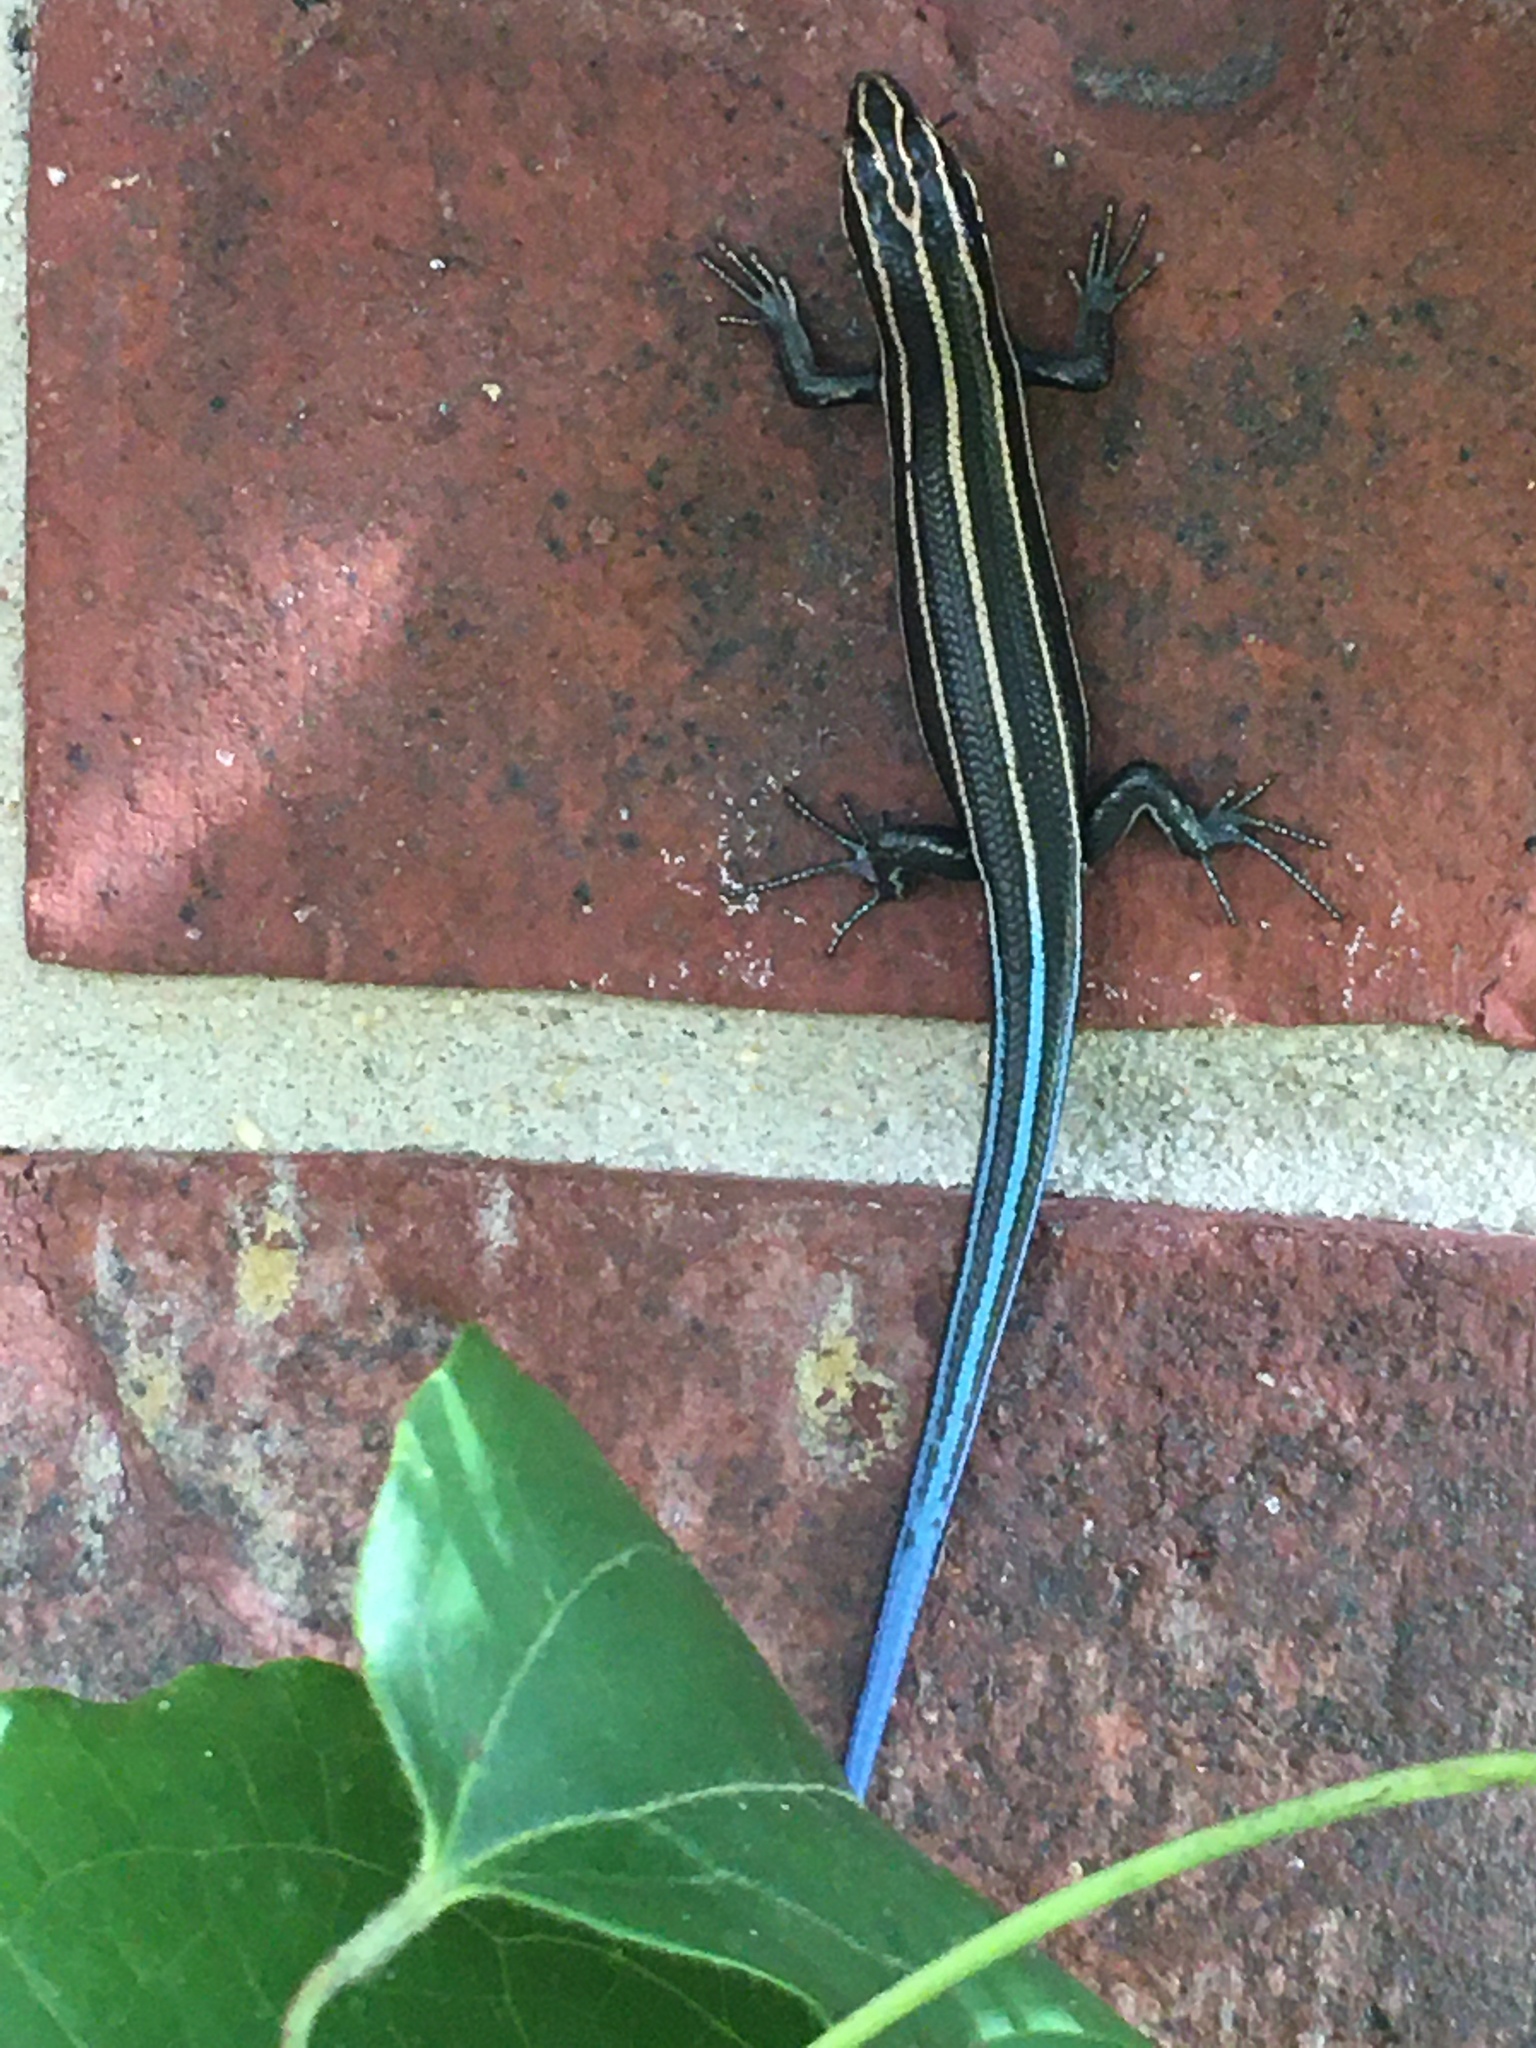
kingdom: Animalia
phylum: Chordata
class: Squamata
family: Scincidae
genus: Plestiodon
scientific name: Plestiodon fasciatus
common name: Five-lined skink
